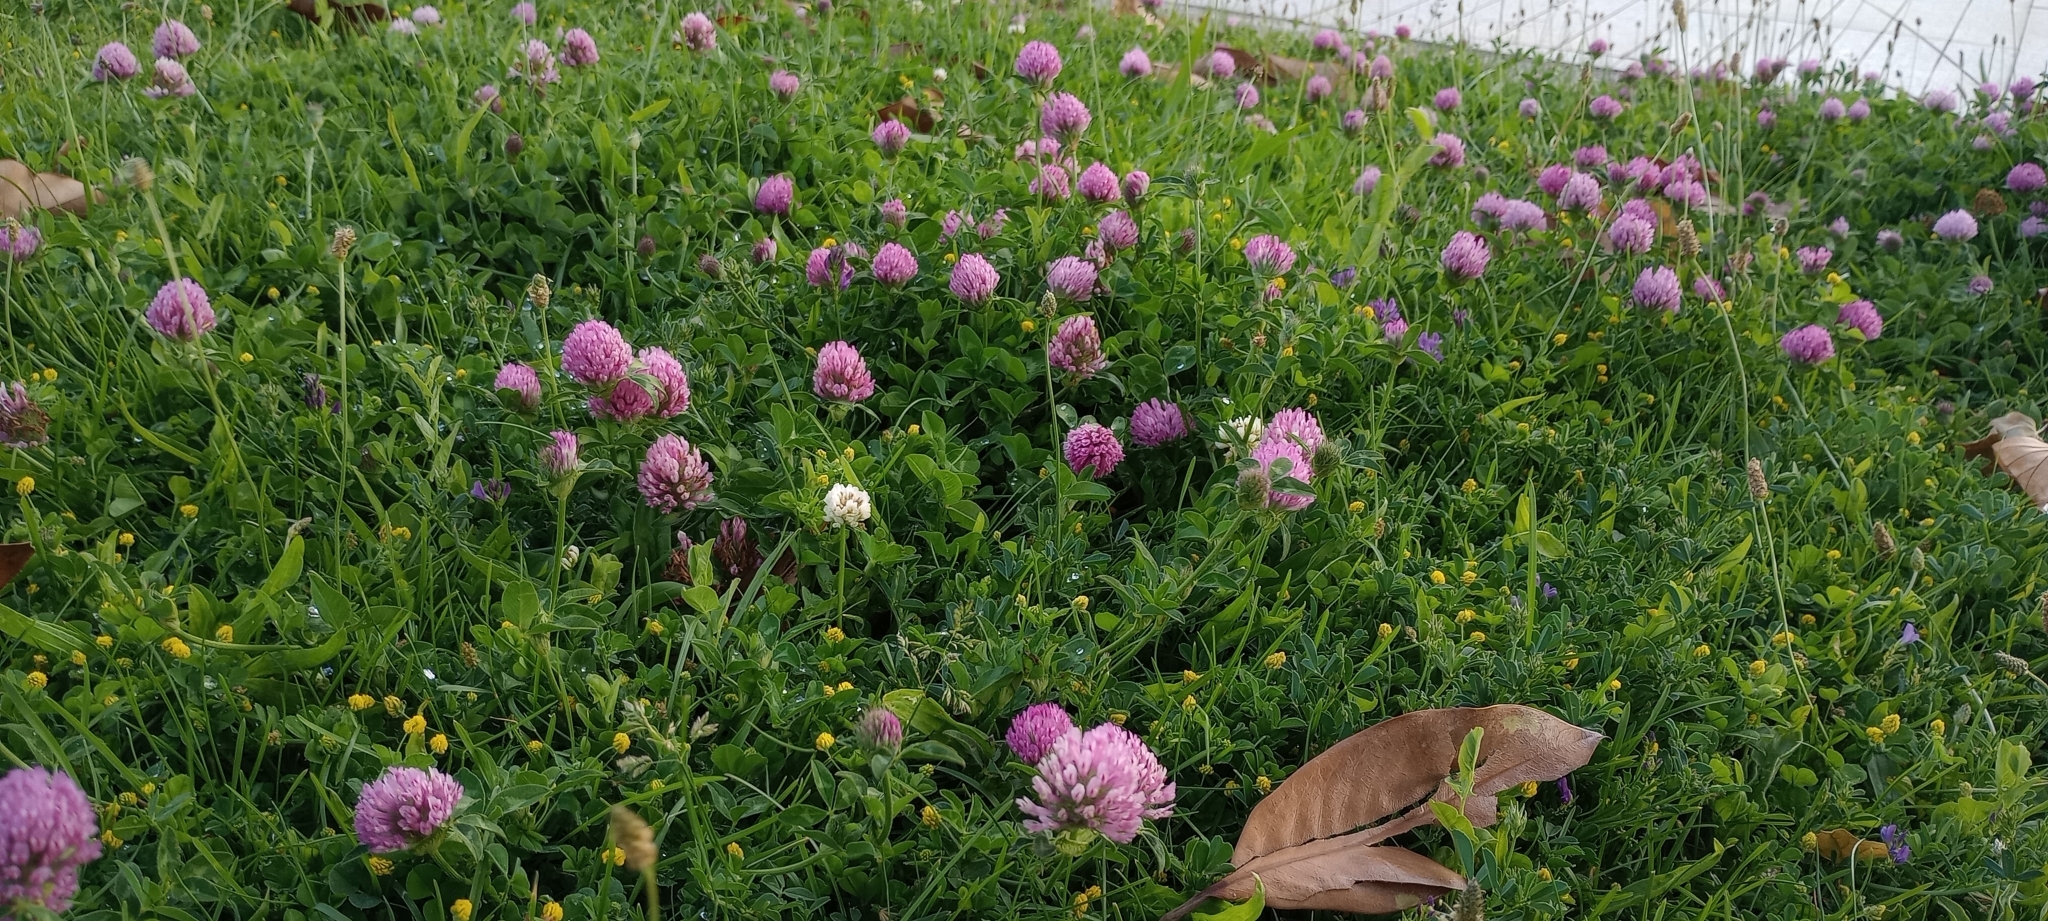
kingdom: Plantae
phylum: Tracheophyta
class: Magnoliopsida
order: Fabales
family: Fabaceae
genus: Trifolium
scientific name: Trifolium pratense
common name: Red clover
